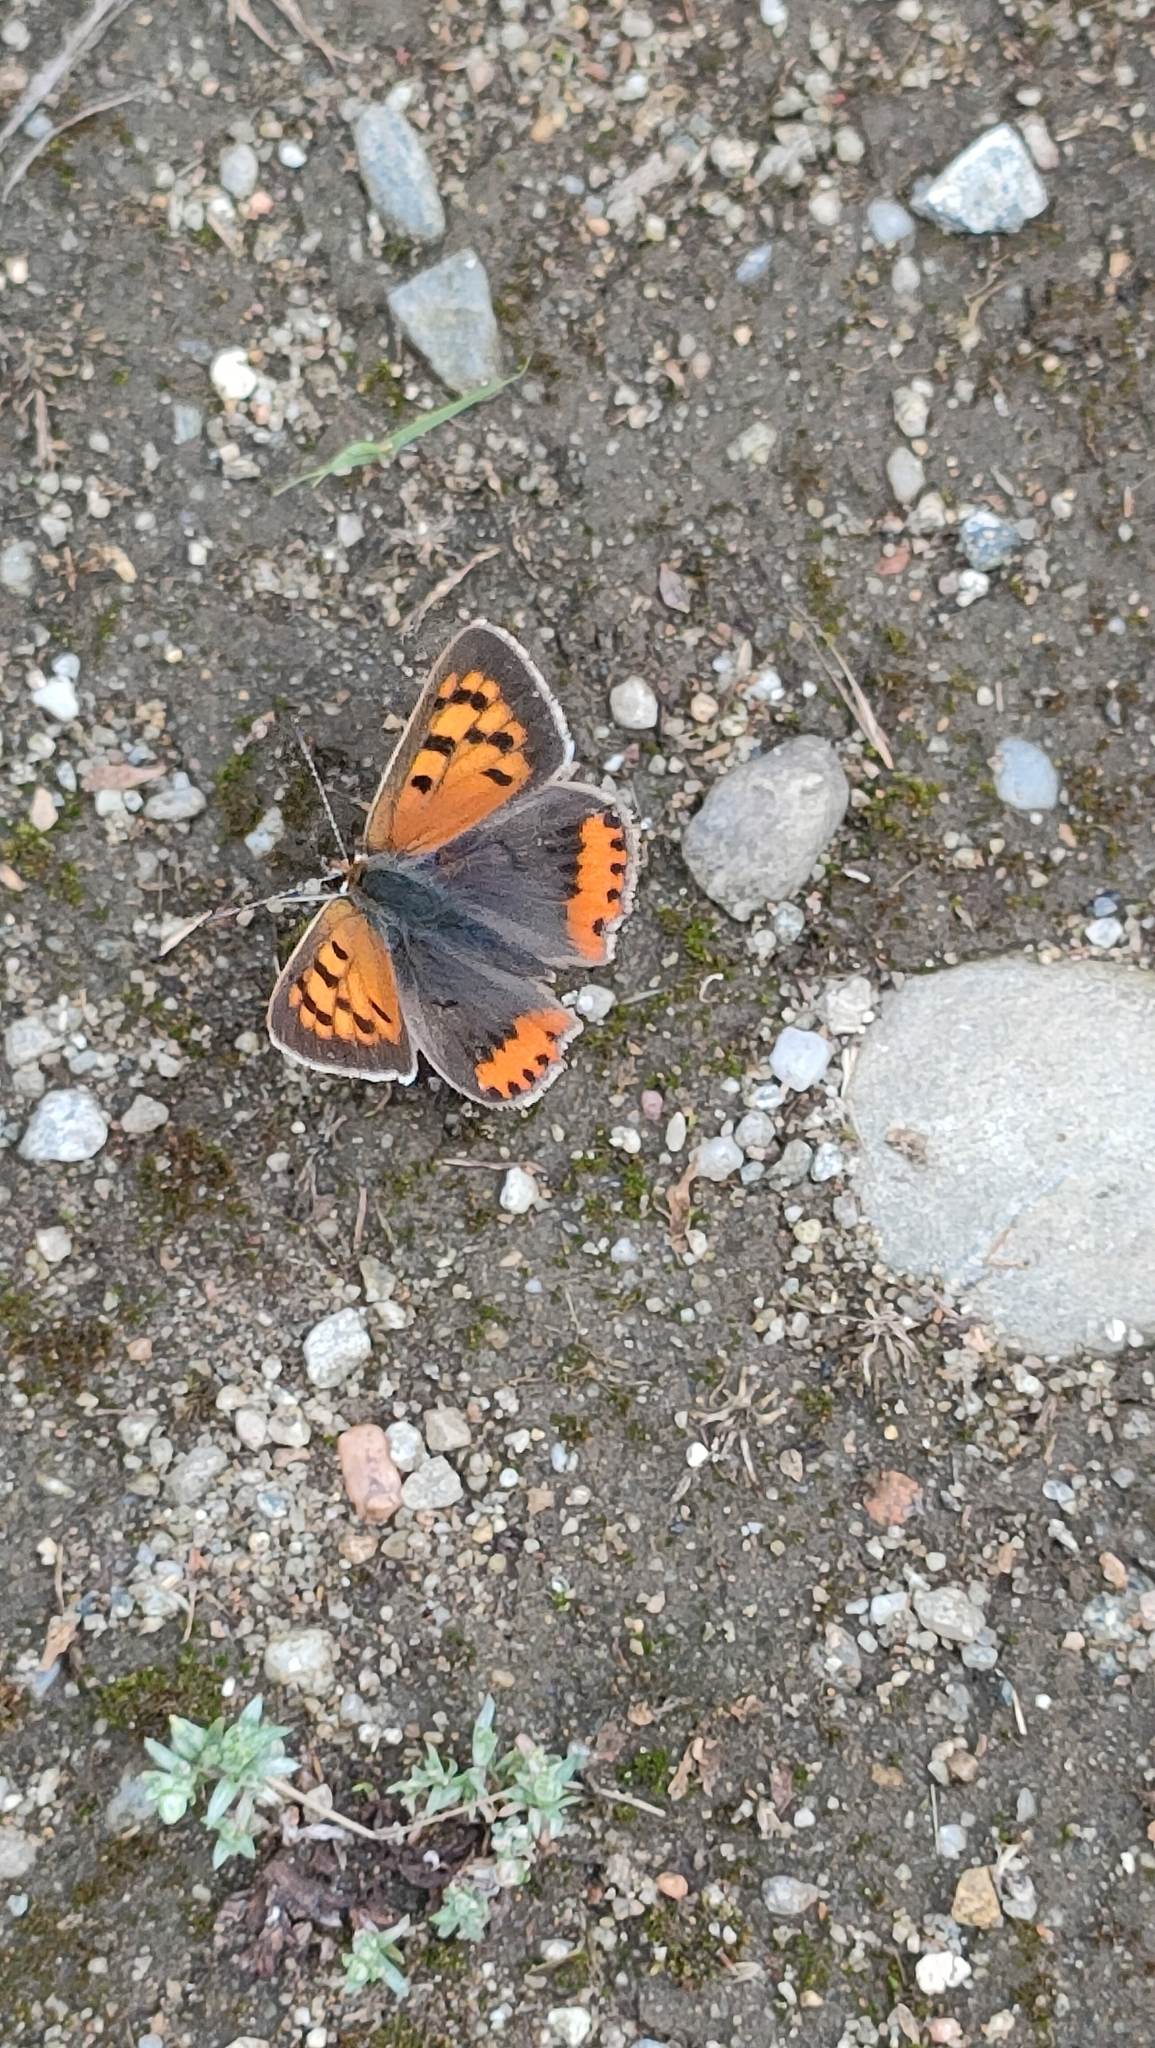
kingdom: Animalia
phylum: Arthropoda
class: Insecta
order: Lepidoptera
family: Lycaenidae
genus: Lycaena
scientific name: Lycaena phlaeas
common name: Small copper
